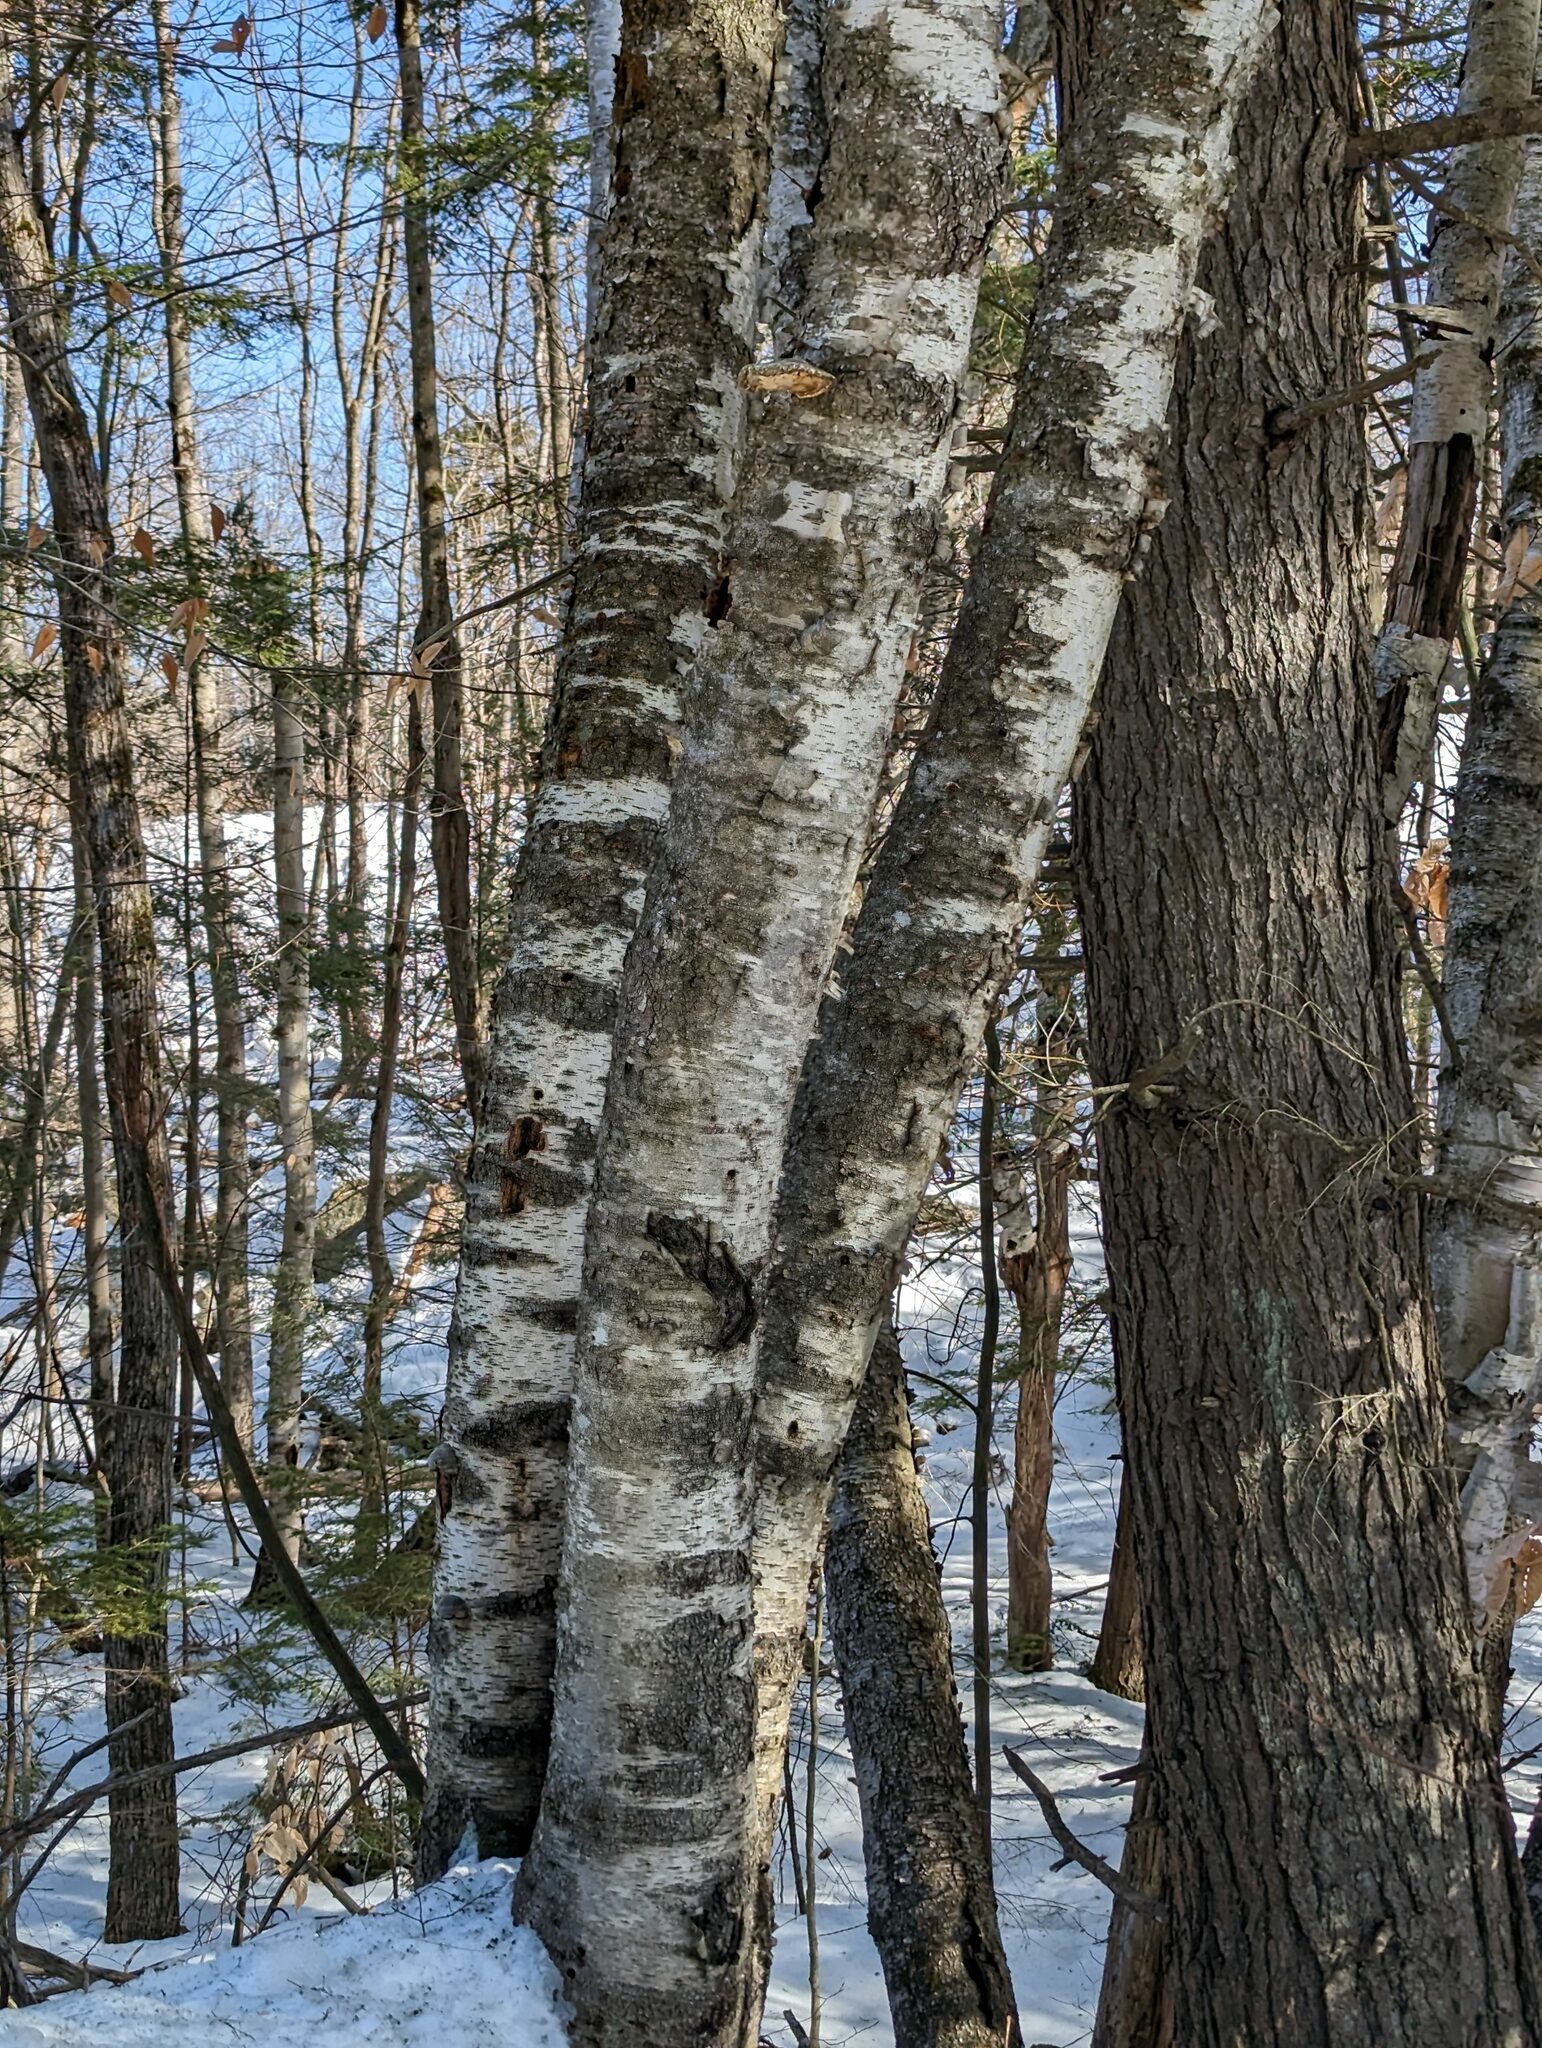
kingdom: Plantae
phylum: Tracheophyta
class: Magnoliopsida
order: Fagales
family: Betulaceae
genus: Betula
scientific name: Betula papyrifera
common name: Paper birch
